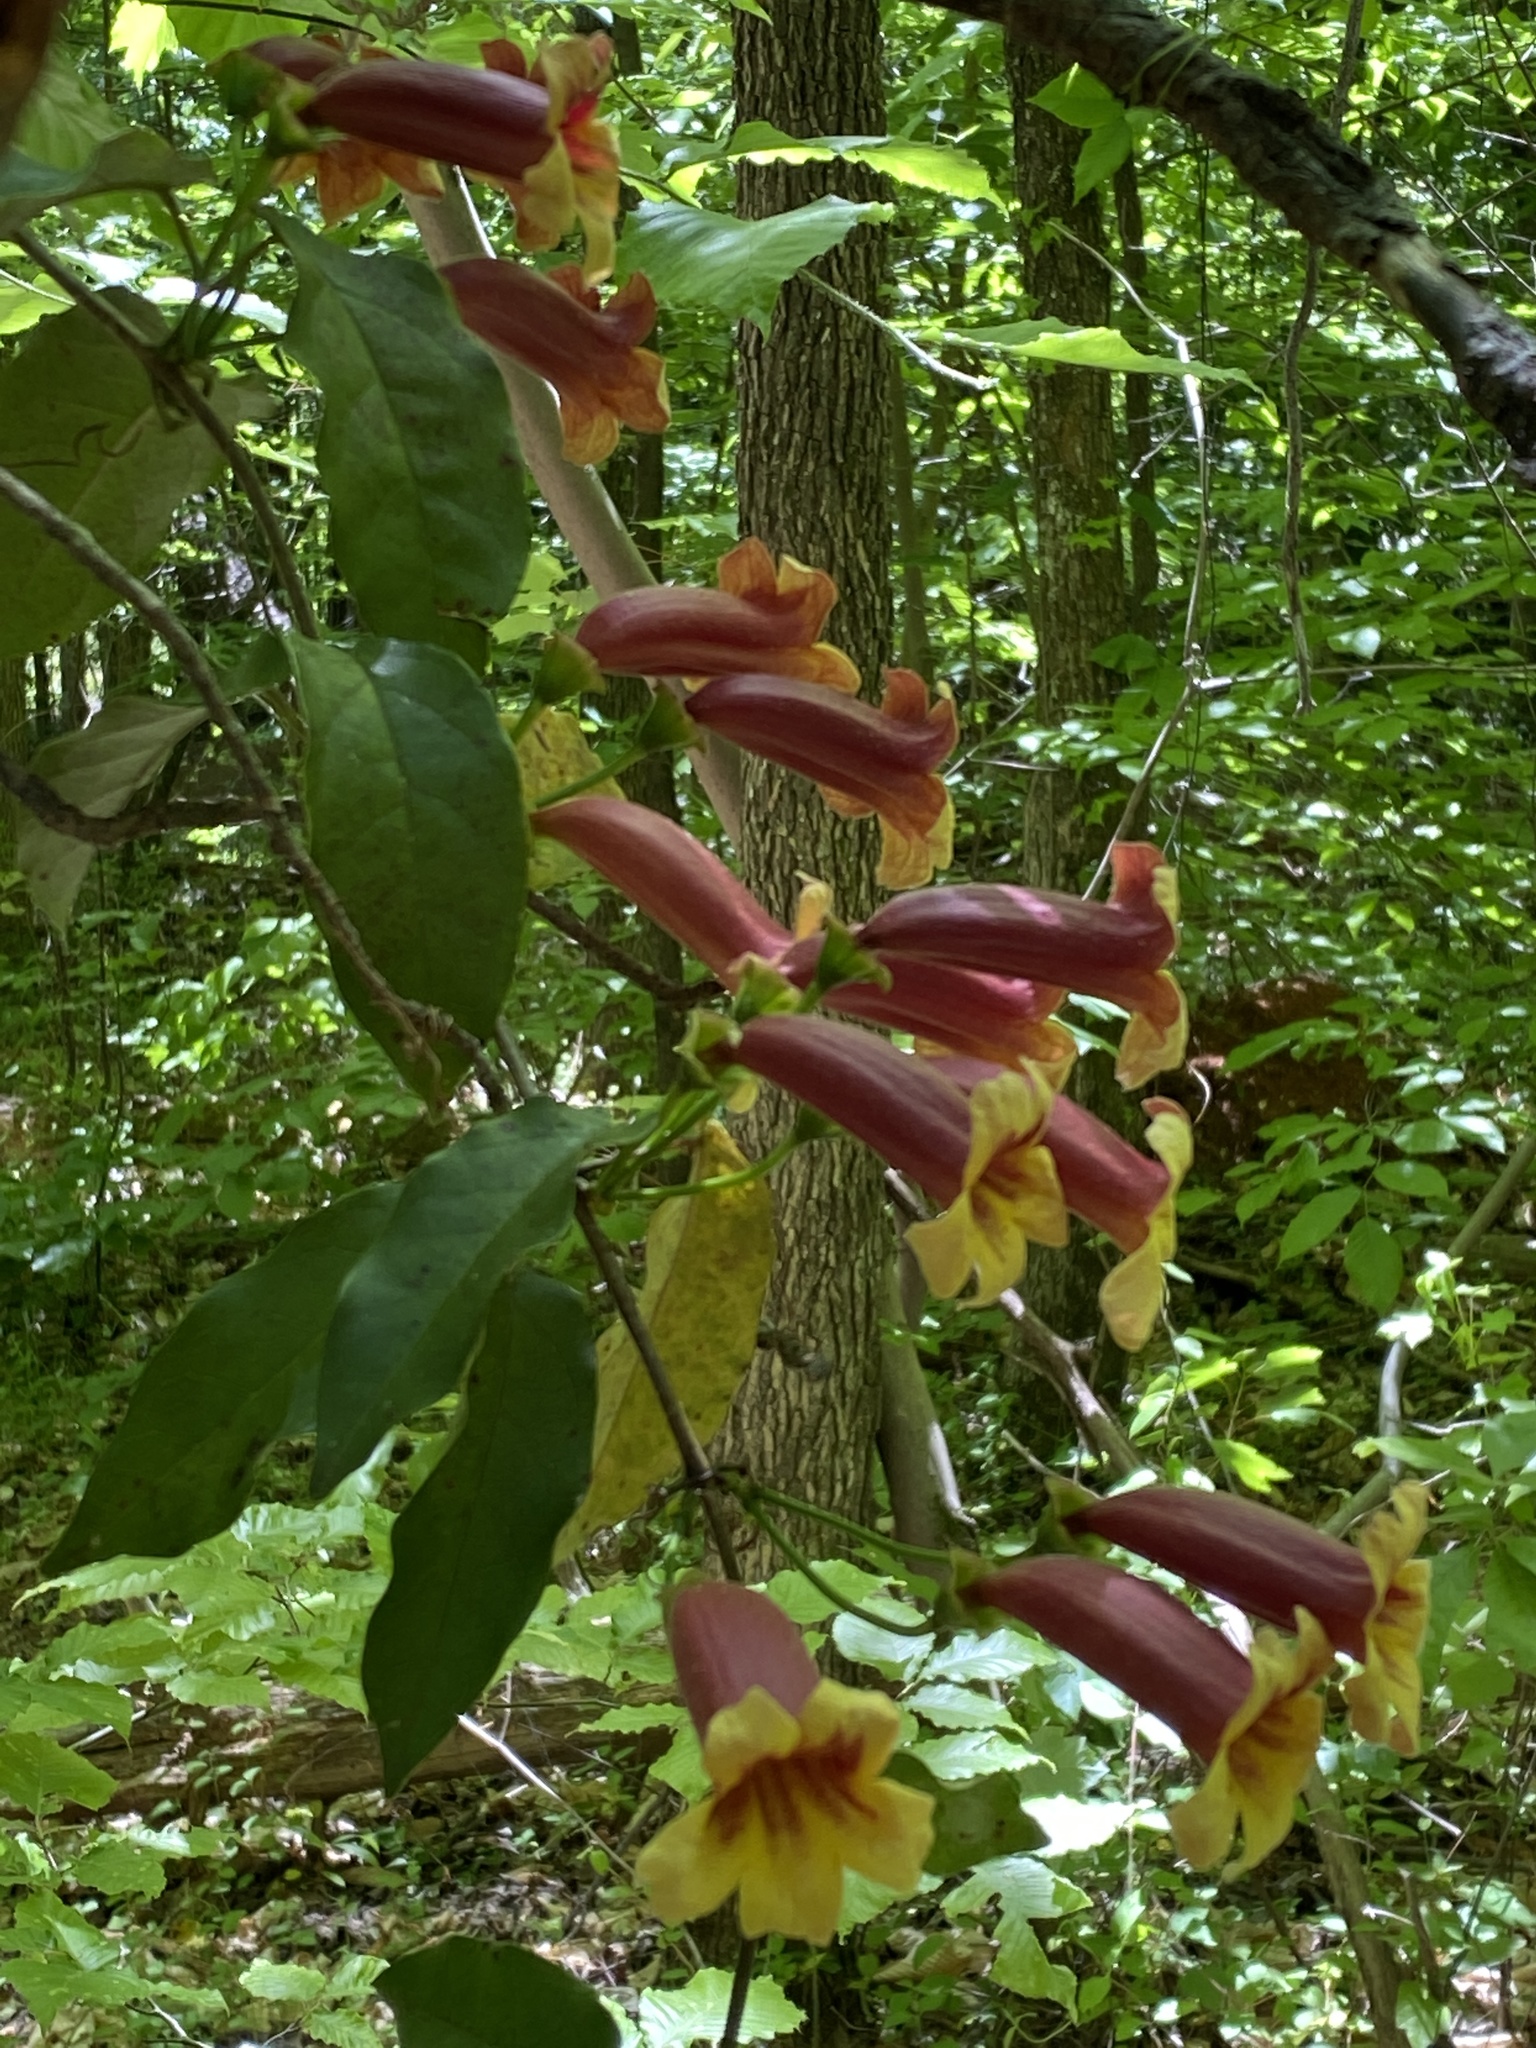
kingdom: Plantae
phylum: Tracheophyta
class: Magnoliopsida
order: Lamiales
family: Bignoniaceae
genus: Bignonia
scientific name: Bignonia capreolata
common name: Crossvine
